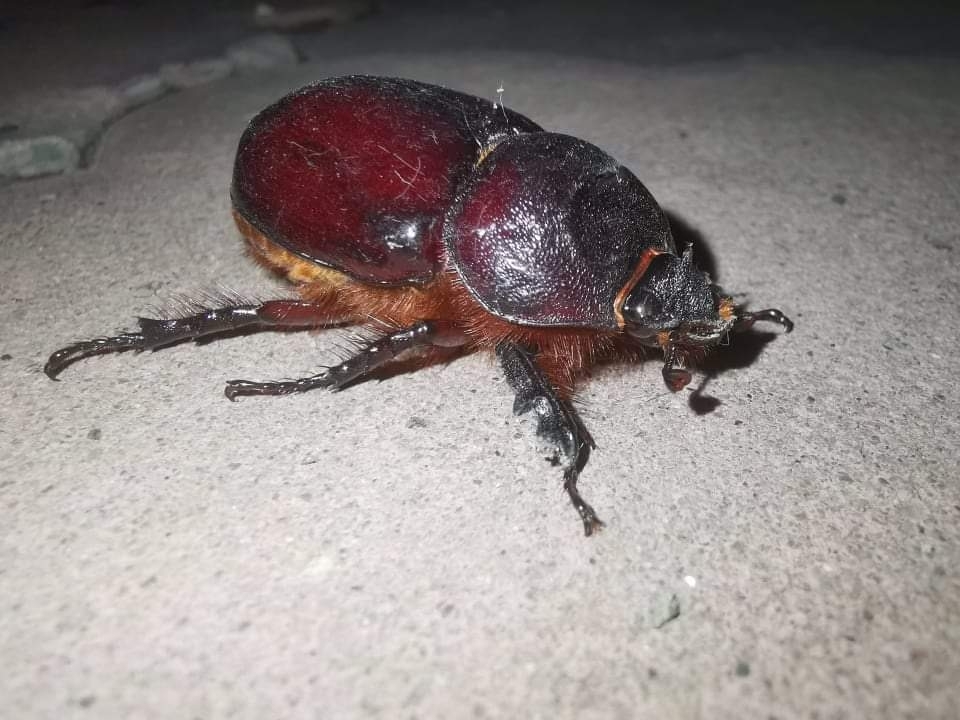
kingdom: Animalia
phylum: Arthropoda
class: Insecta
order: Coleoptera
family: Scarabaeidae
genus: Oryctes
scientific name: Oryctes nasicornis
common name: European rhinoceros beetle
